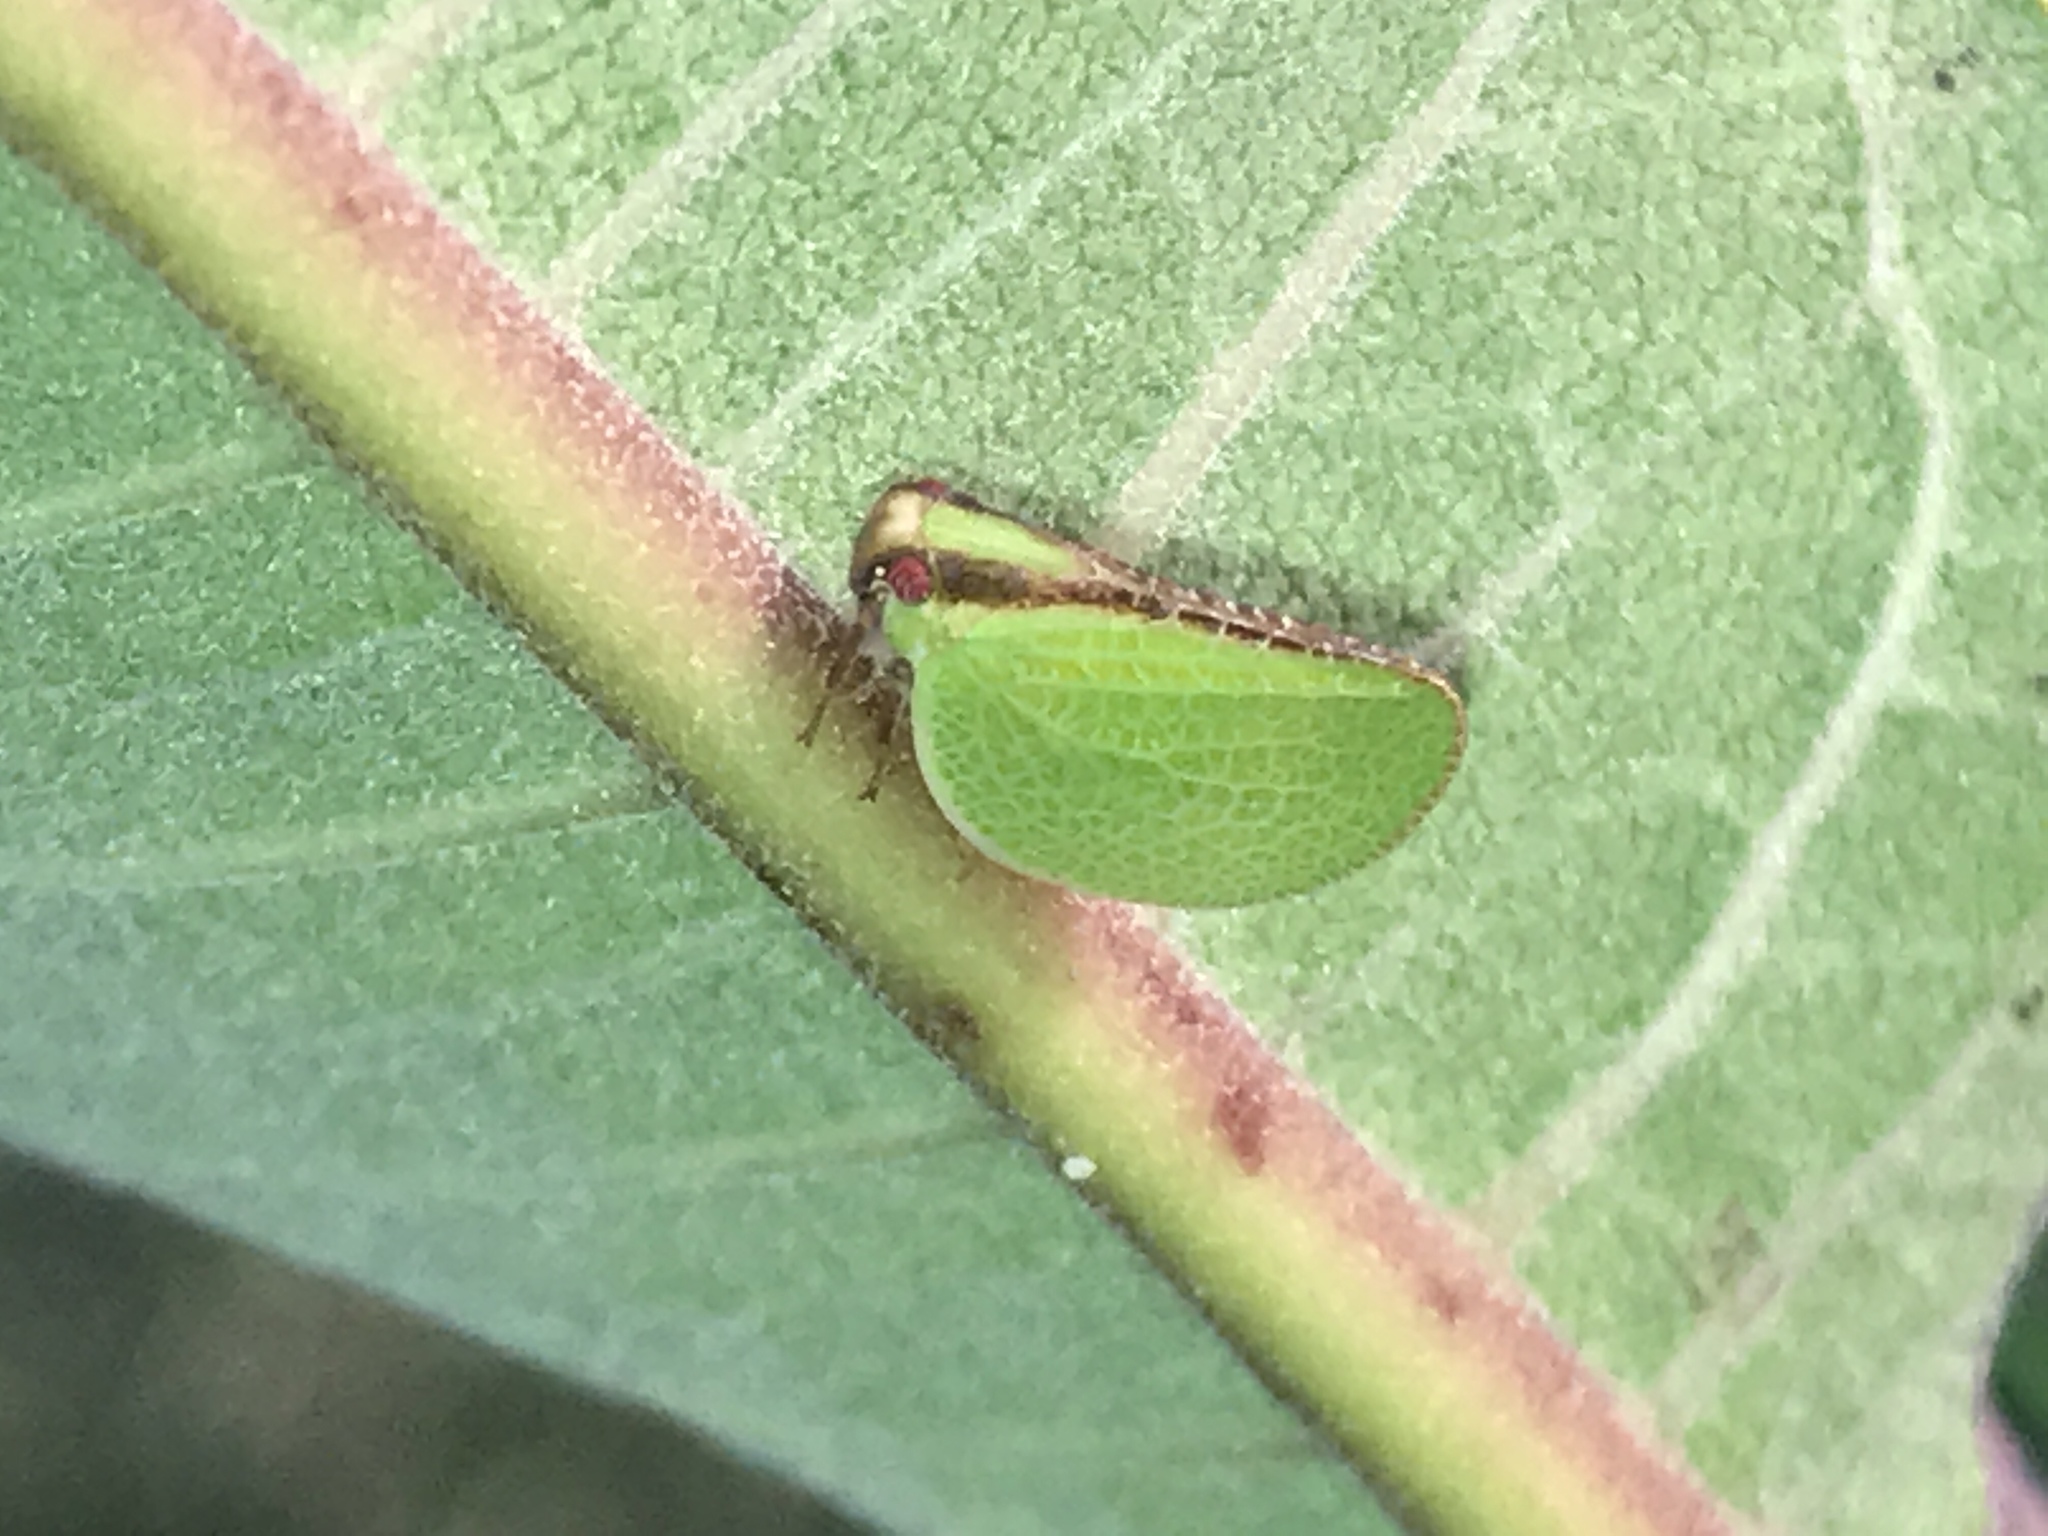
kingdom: Animalia
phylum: Arthropoda
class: Insecta
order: Hemiptera
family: Acanaloniidae
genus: Acanalonia
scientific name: Acanalonia bivittata
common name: Two-striped planthopper
